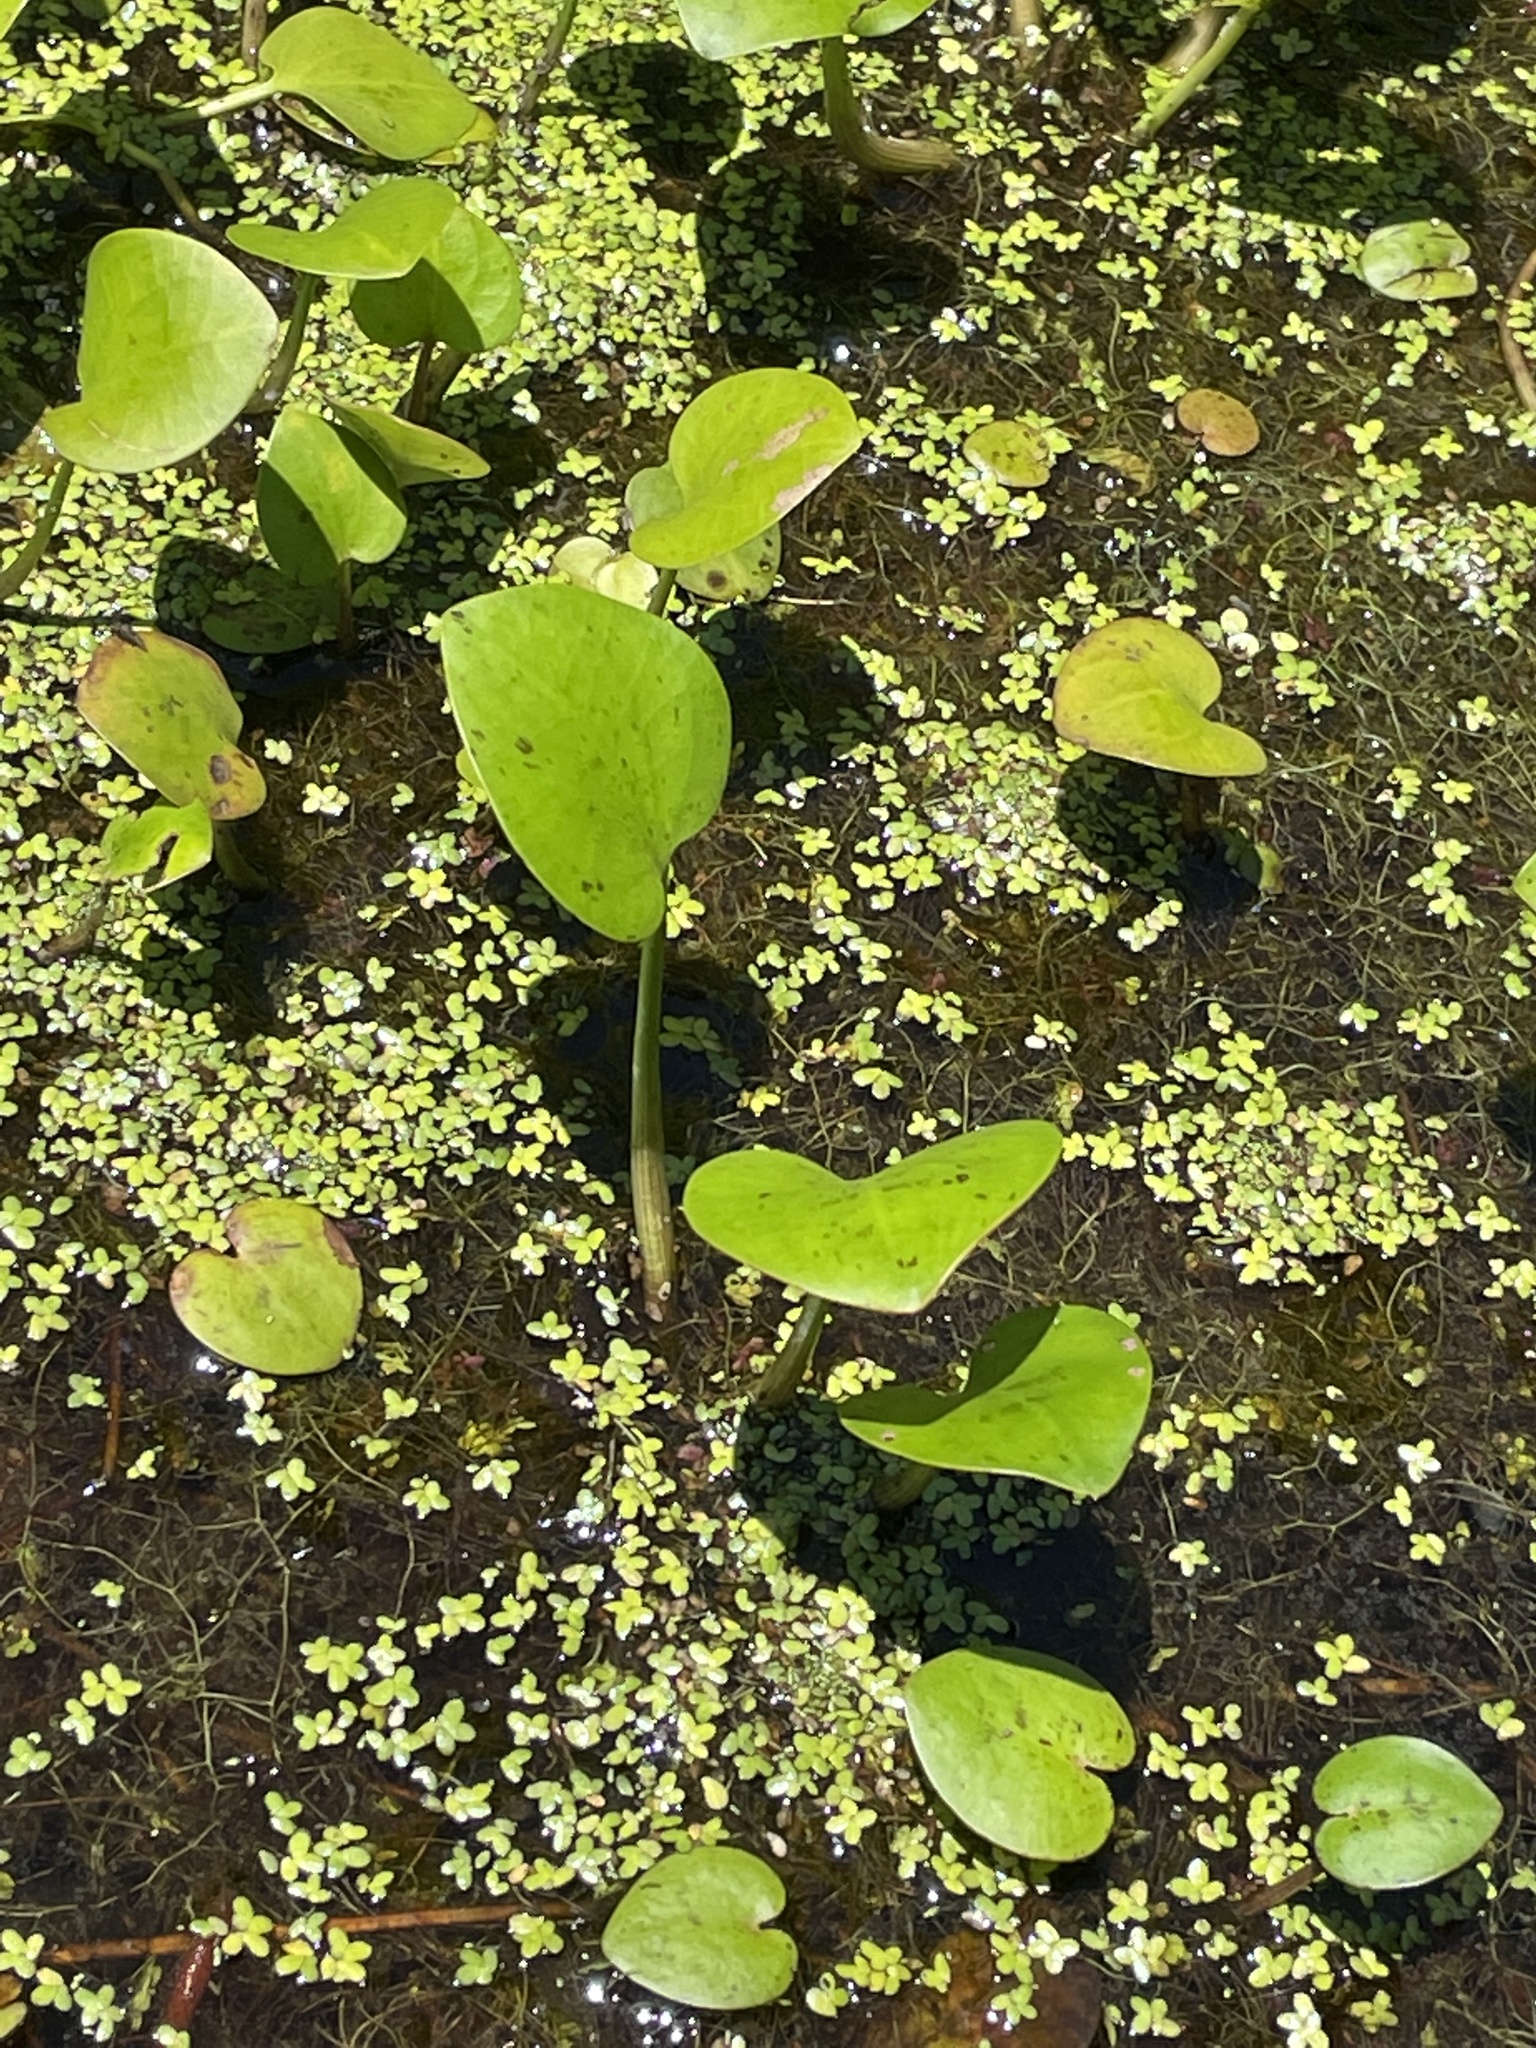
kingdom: Plantae
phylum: Tracheophyta
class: Liliopsida
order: Alismatales
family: Hydrocharitaceae
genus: Hydrocharis
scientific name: Hydrocharis spongia
